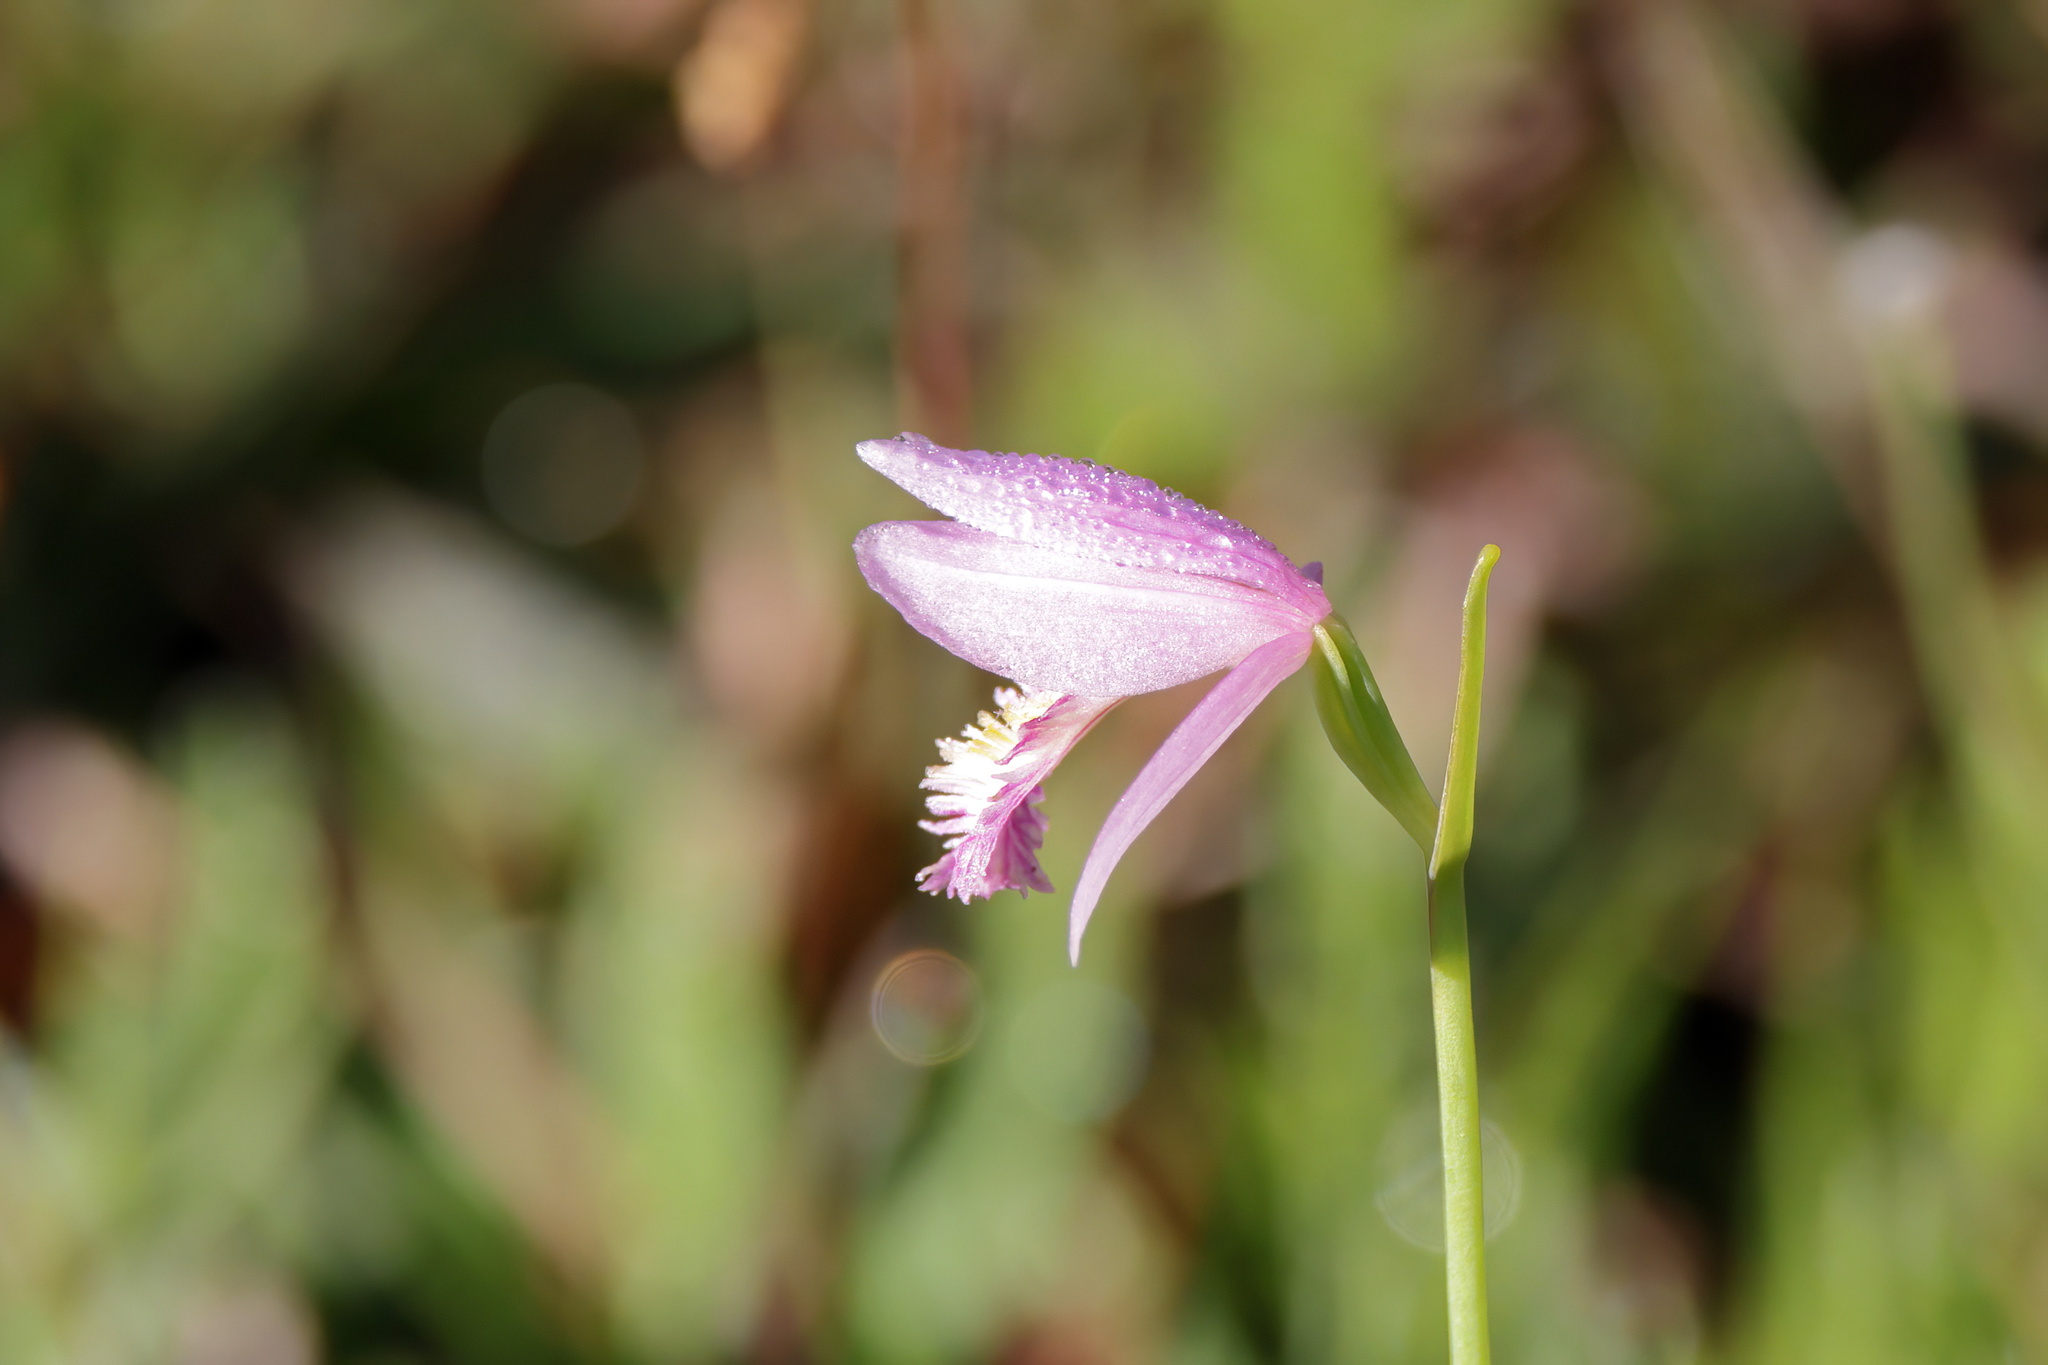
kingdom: Plantae
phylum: Tracheophyta
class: Liliopsida
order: Asparagales
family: Orchidaceae
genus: Pogonia
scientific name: Pogonia ophioglossoides
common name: Rose pogonia
